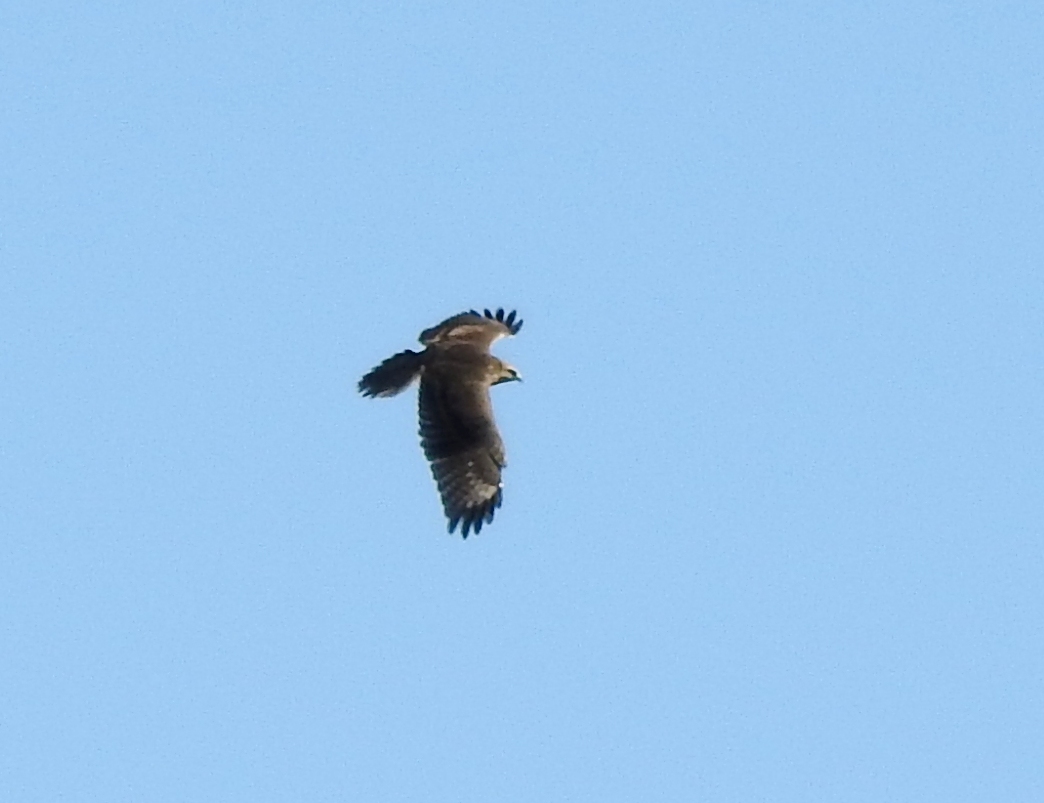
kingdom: Animalia
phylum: Chordata
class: Aves
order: Accipitriformes
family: Accipitridae
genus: Buteo
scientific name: Buteo japonicus
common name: Eastern buzzard
